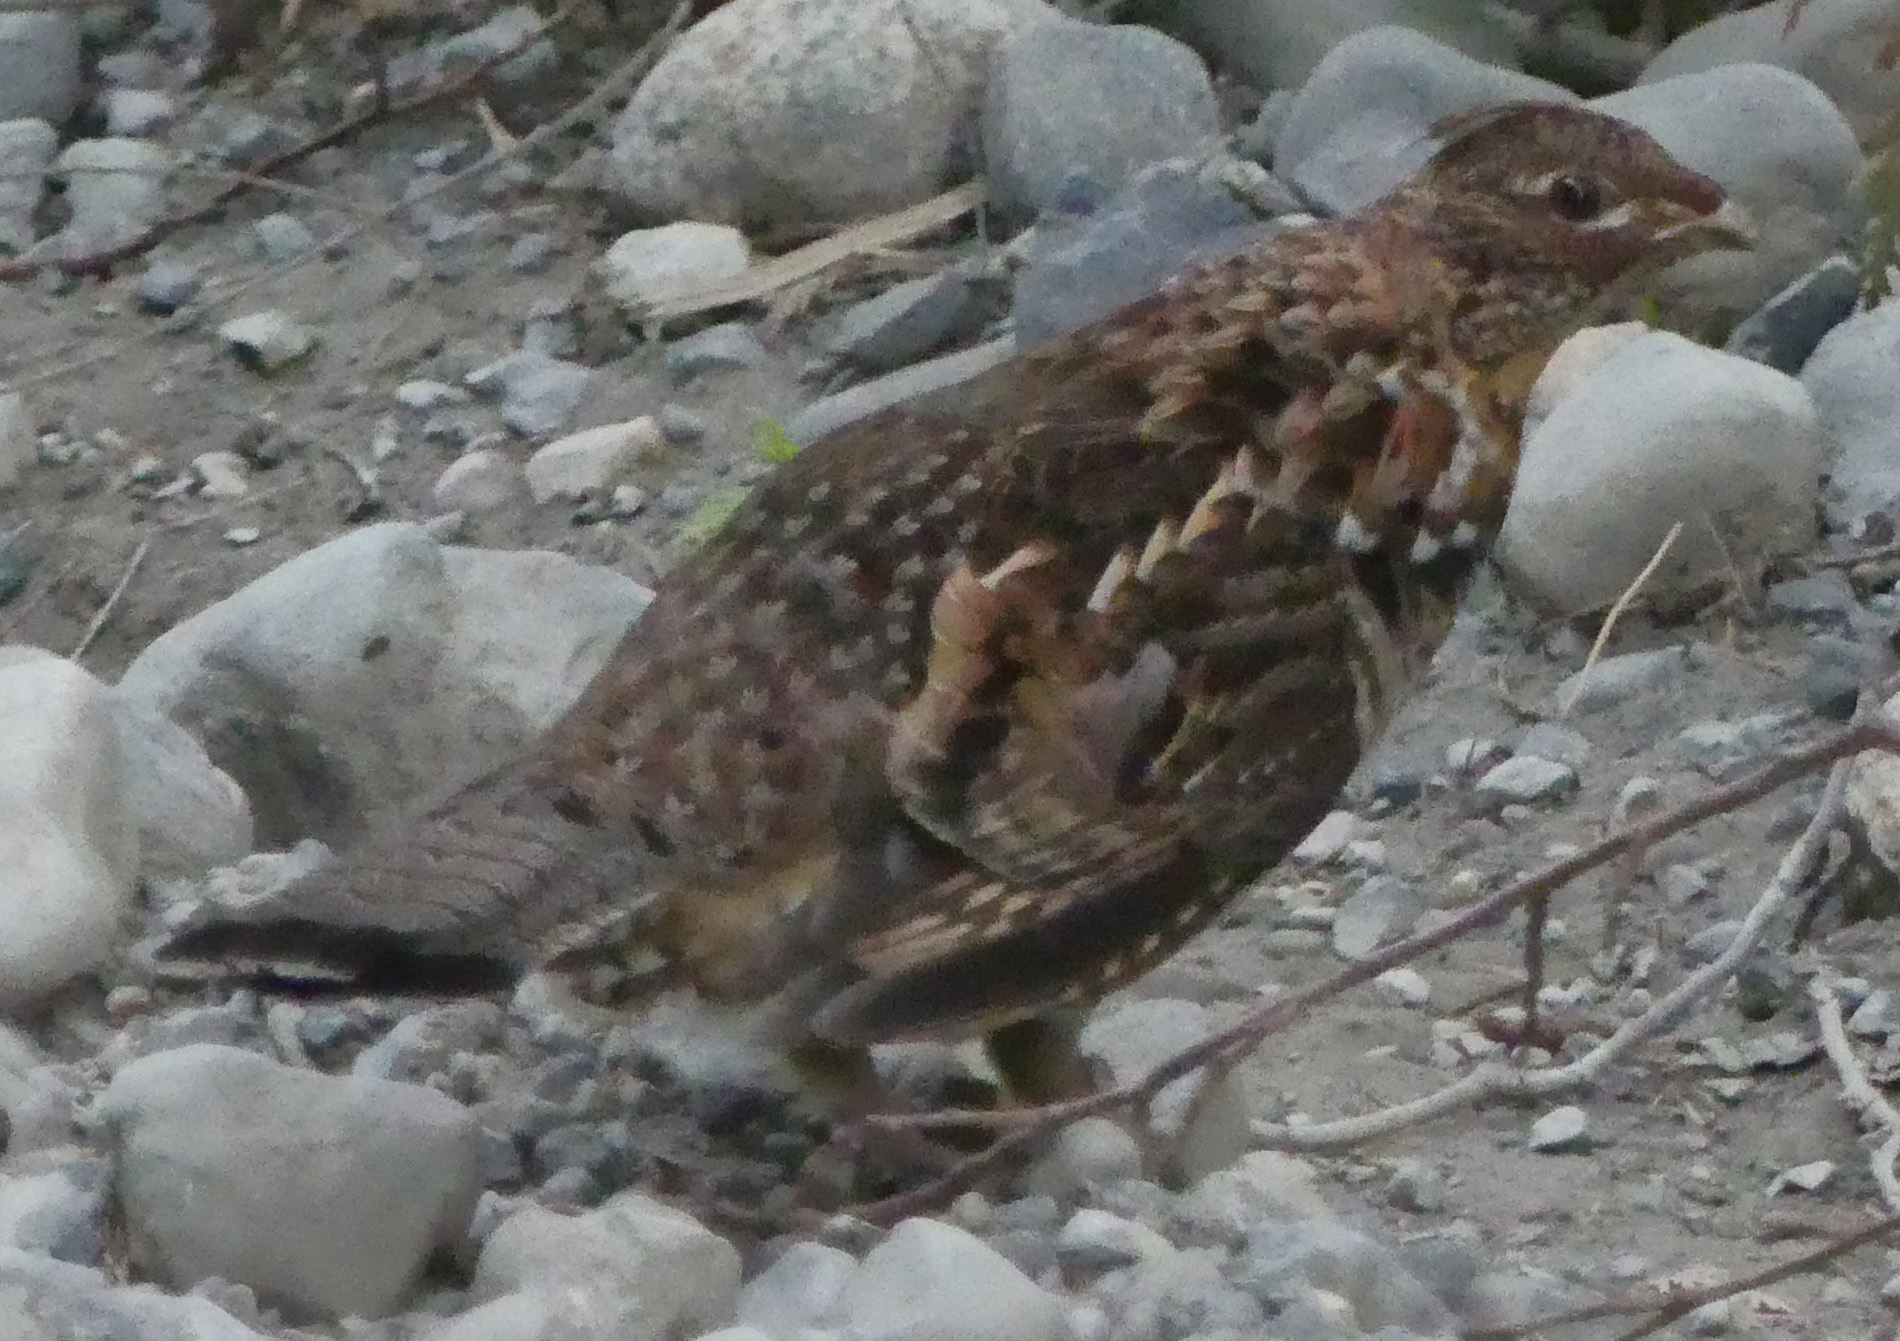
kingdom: Animalia
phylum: Chordata
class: Aves
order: Galliformes
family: Phasianidae
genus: Bonasa
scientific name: Bonasa umbellus
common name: Ruffed grouse
